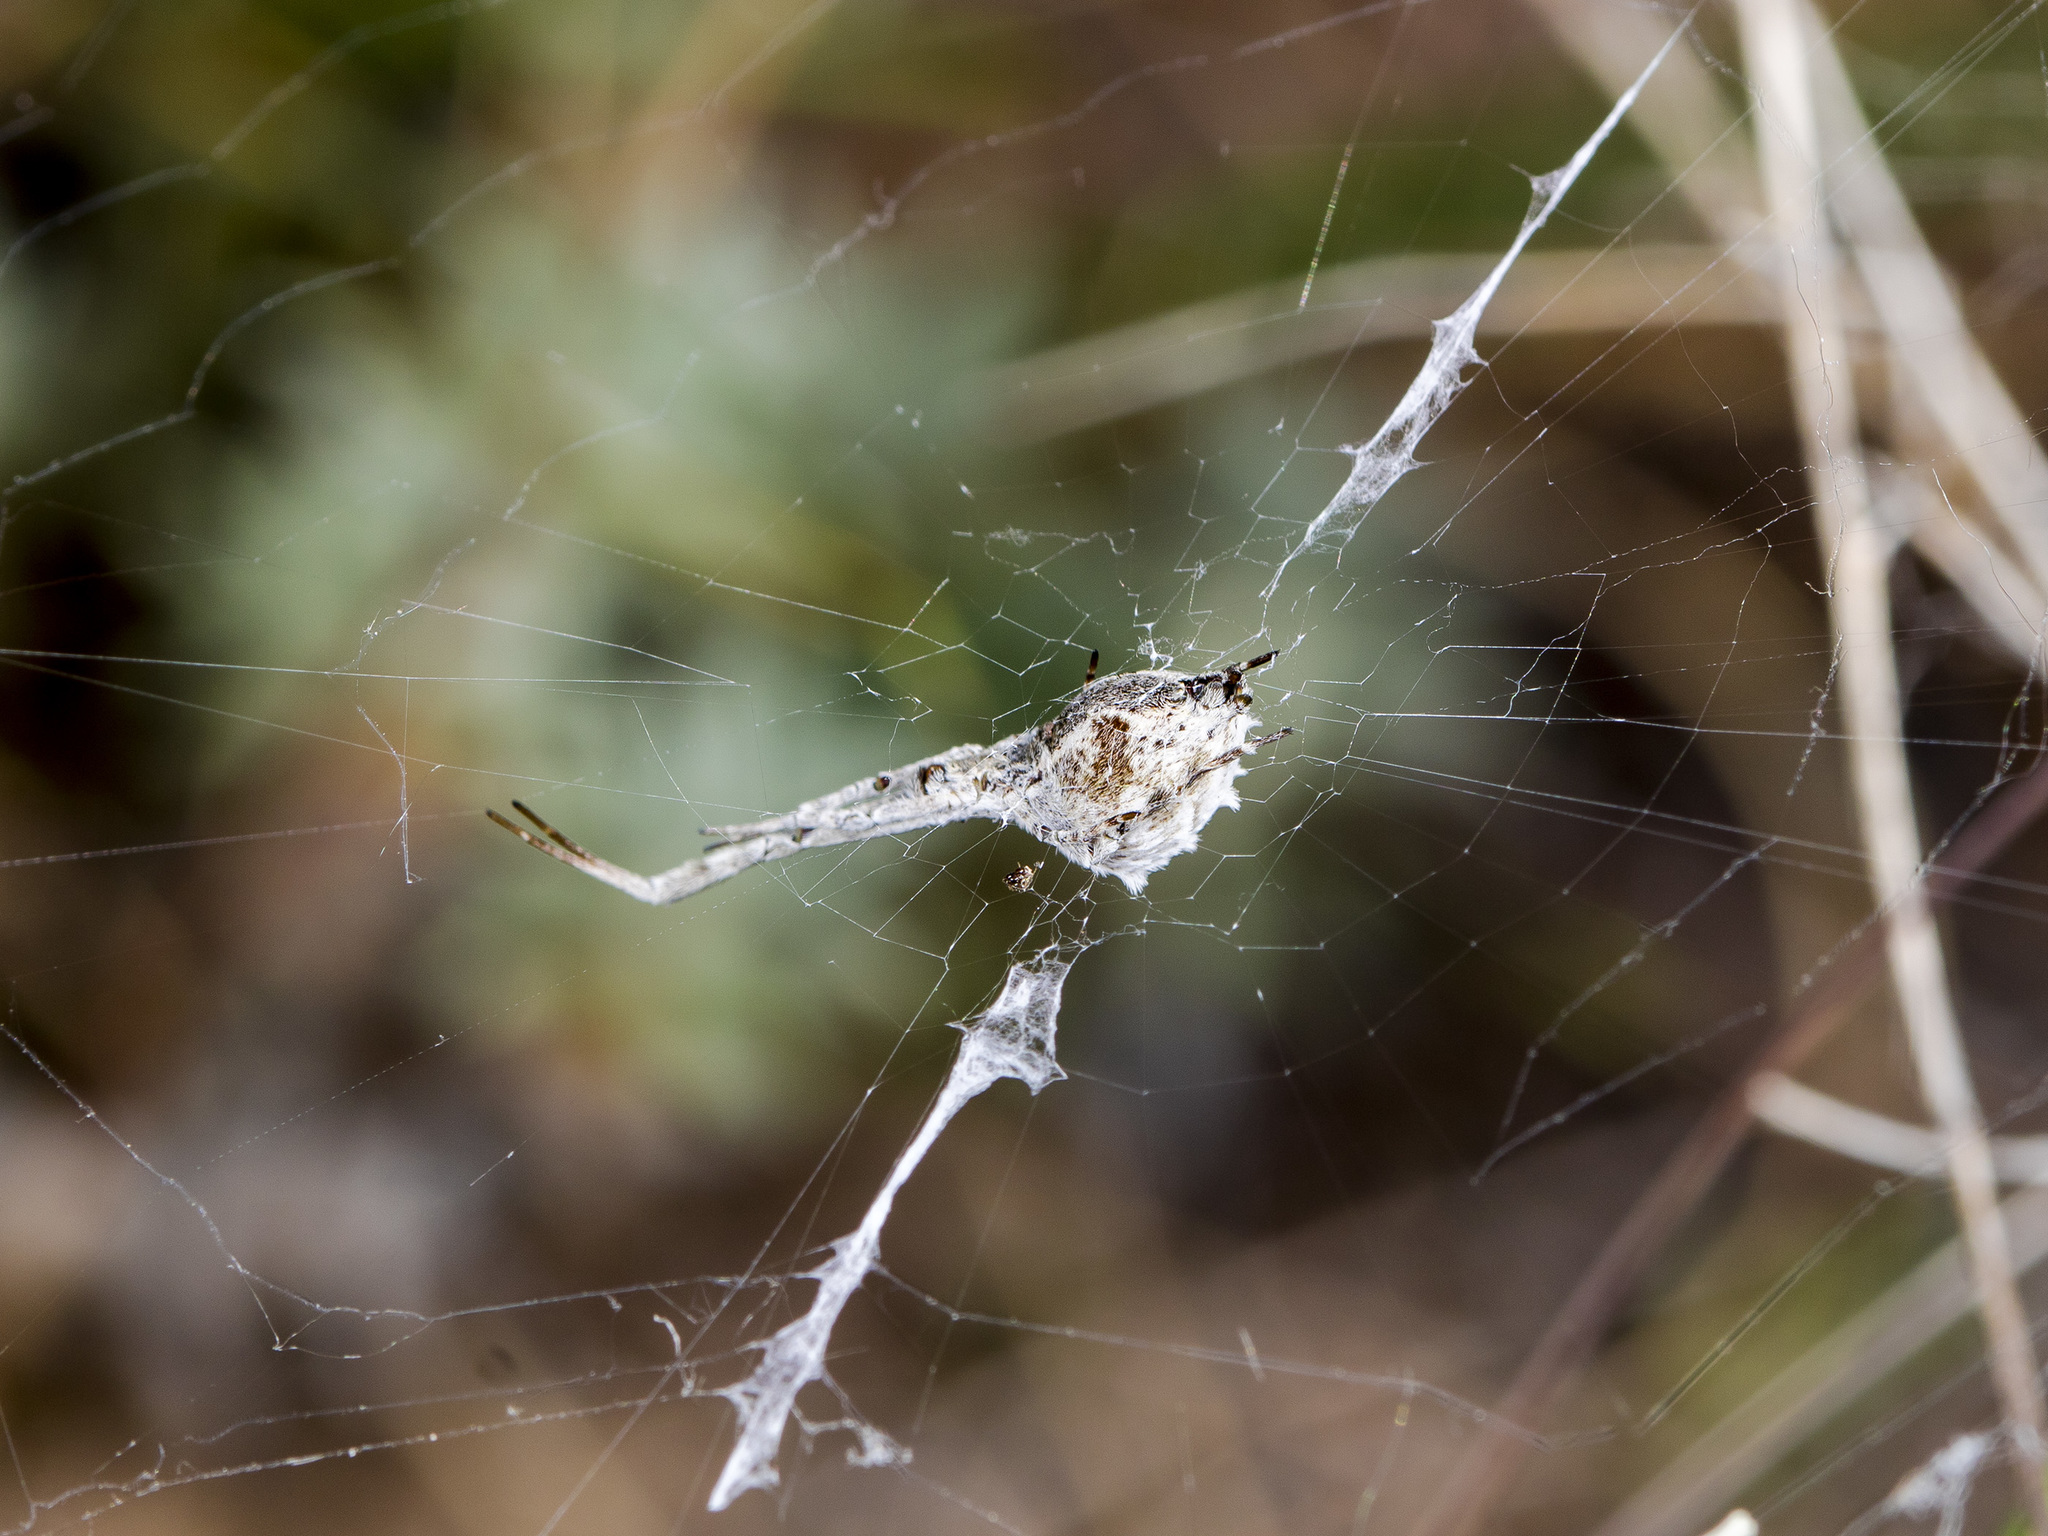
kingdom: Animalia
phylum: Arthropoda
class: Arachnida
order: Araneae
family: Uloboridae
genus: Uloborus
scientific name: Uloborus walckenaerius
